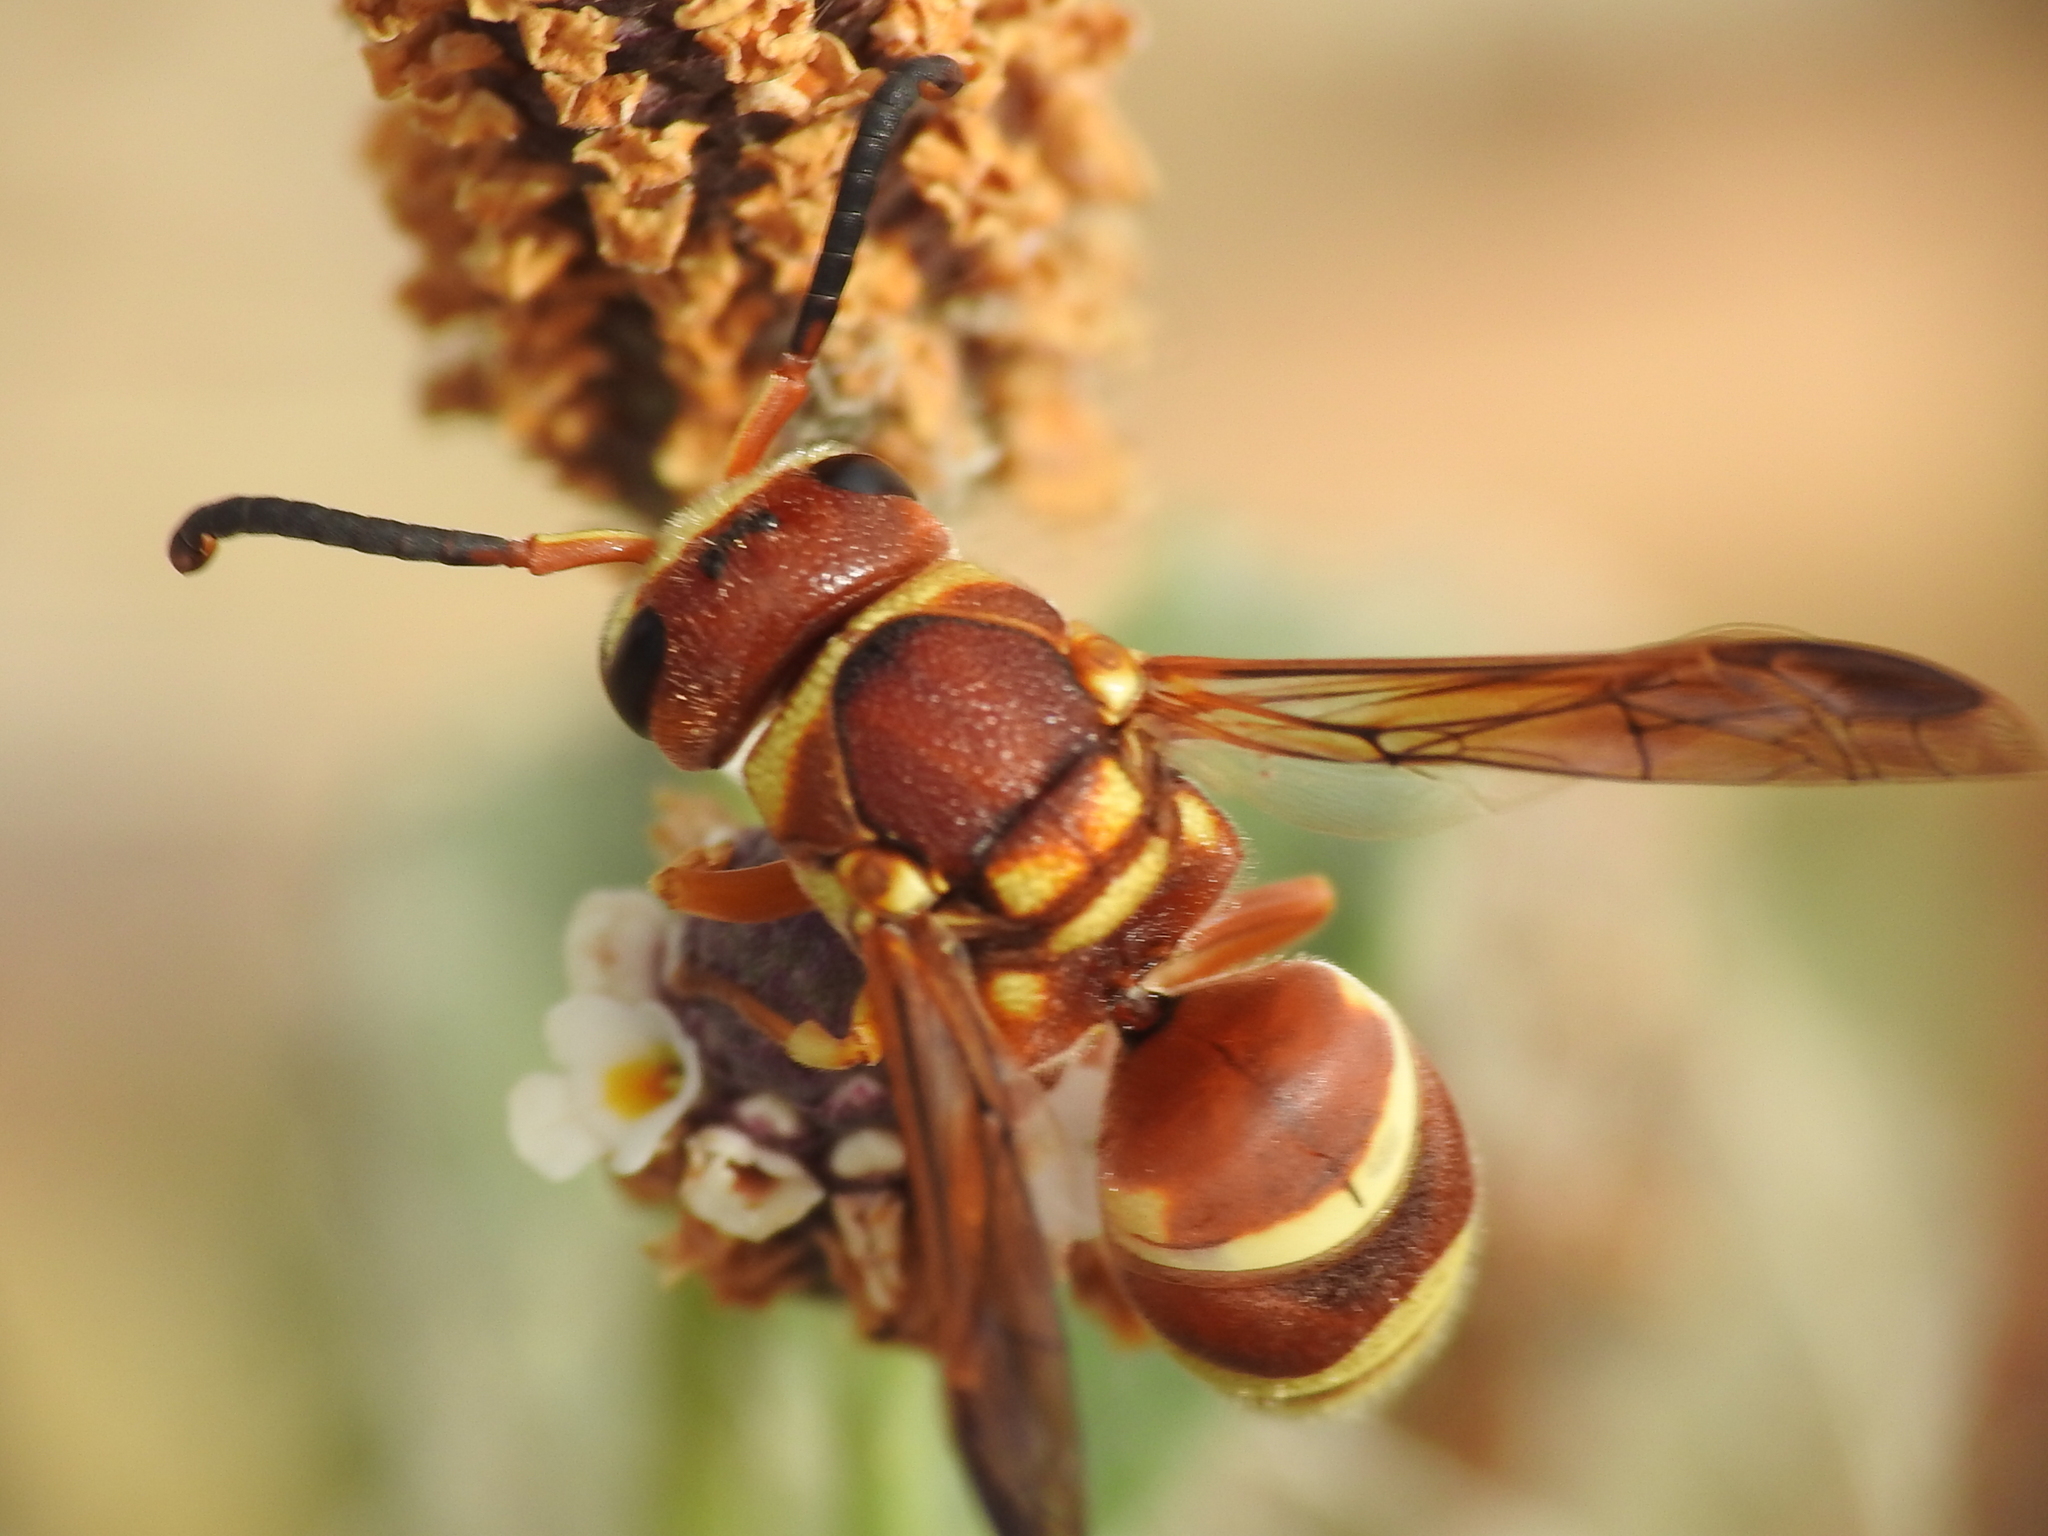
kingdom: Animalia
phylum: Arthropoda
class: Insecta
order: Hymenoptera
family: Eumenidae
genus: Euodynerus
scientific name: Euodynerus annulatus
